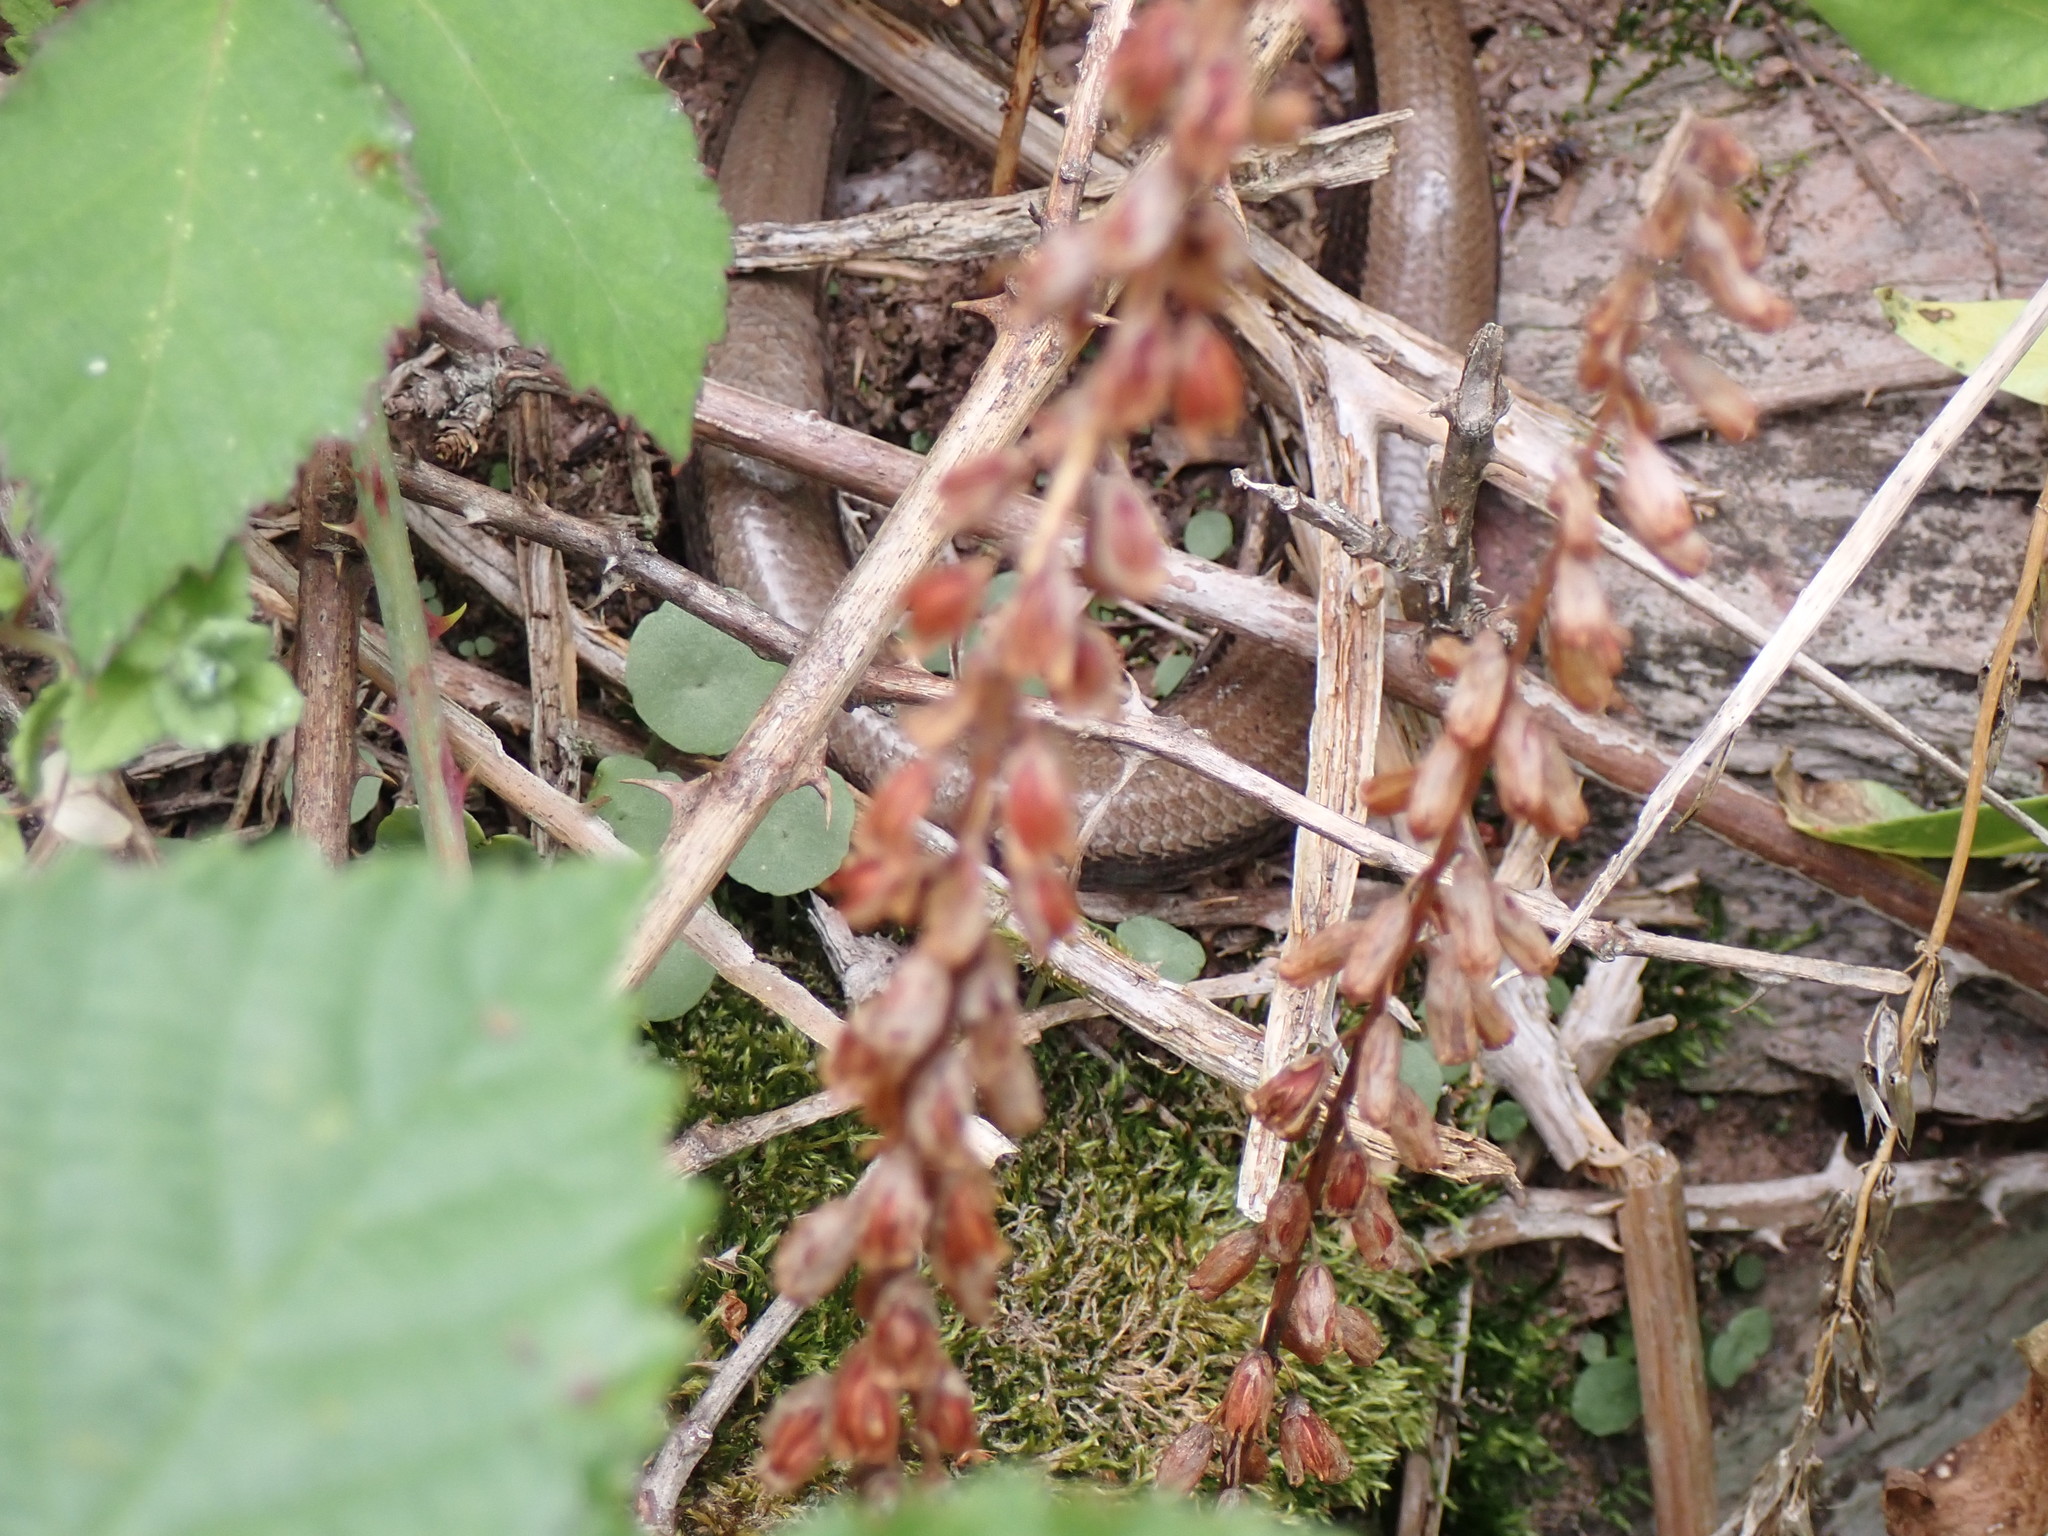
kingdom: Animalia
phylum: Chordata
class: Squamata
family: Anguidae
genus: Anguis
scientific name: Anguis fragilis
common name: Slow worm
